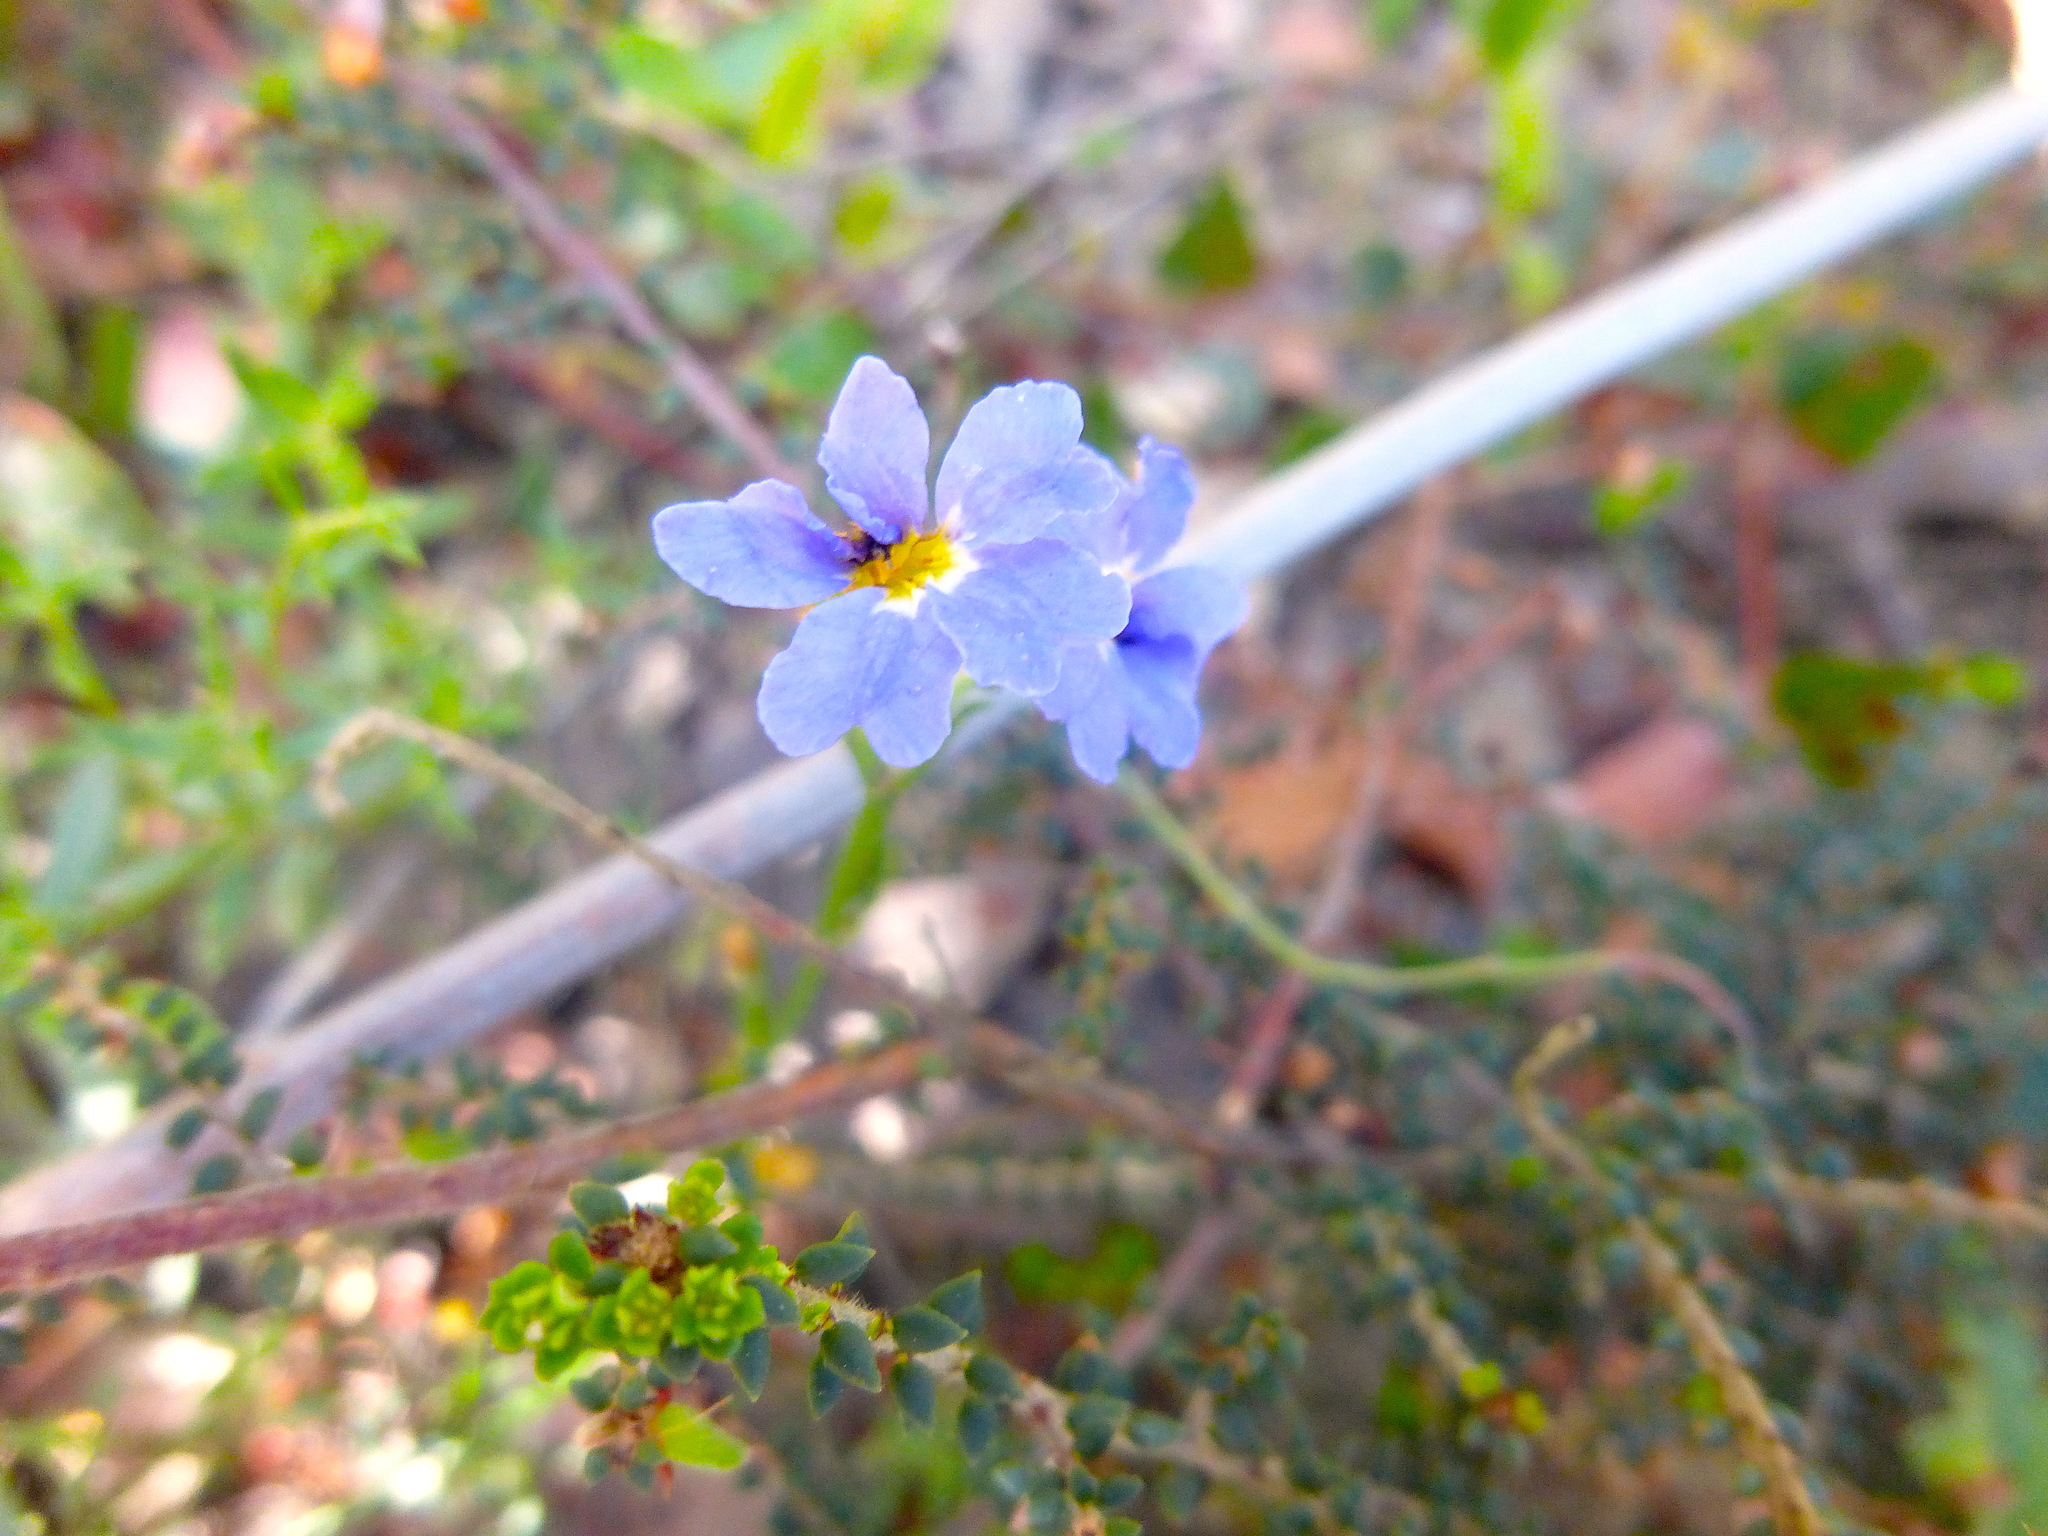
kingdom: Plantae
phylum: Tracheophyta
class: Magnoliopsida
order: Asterales
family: Goodeniaceae
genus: Dampiera
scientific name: Dampiera stricta
